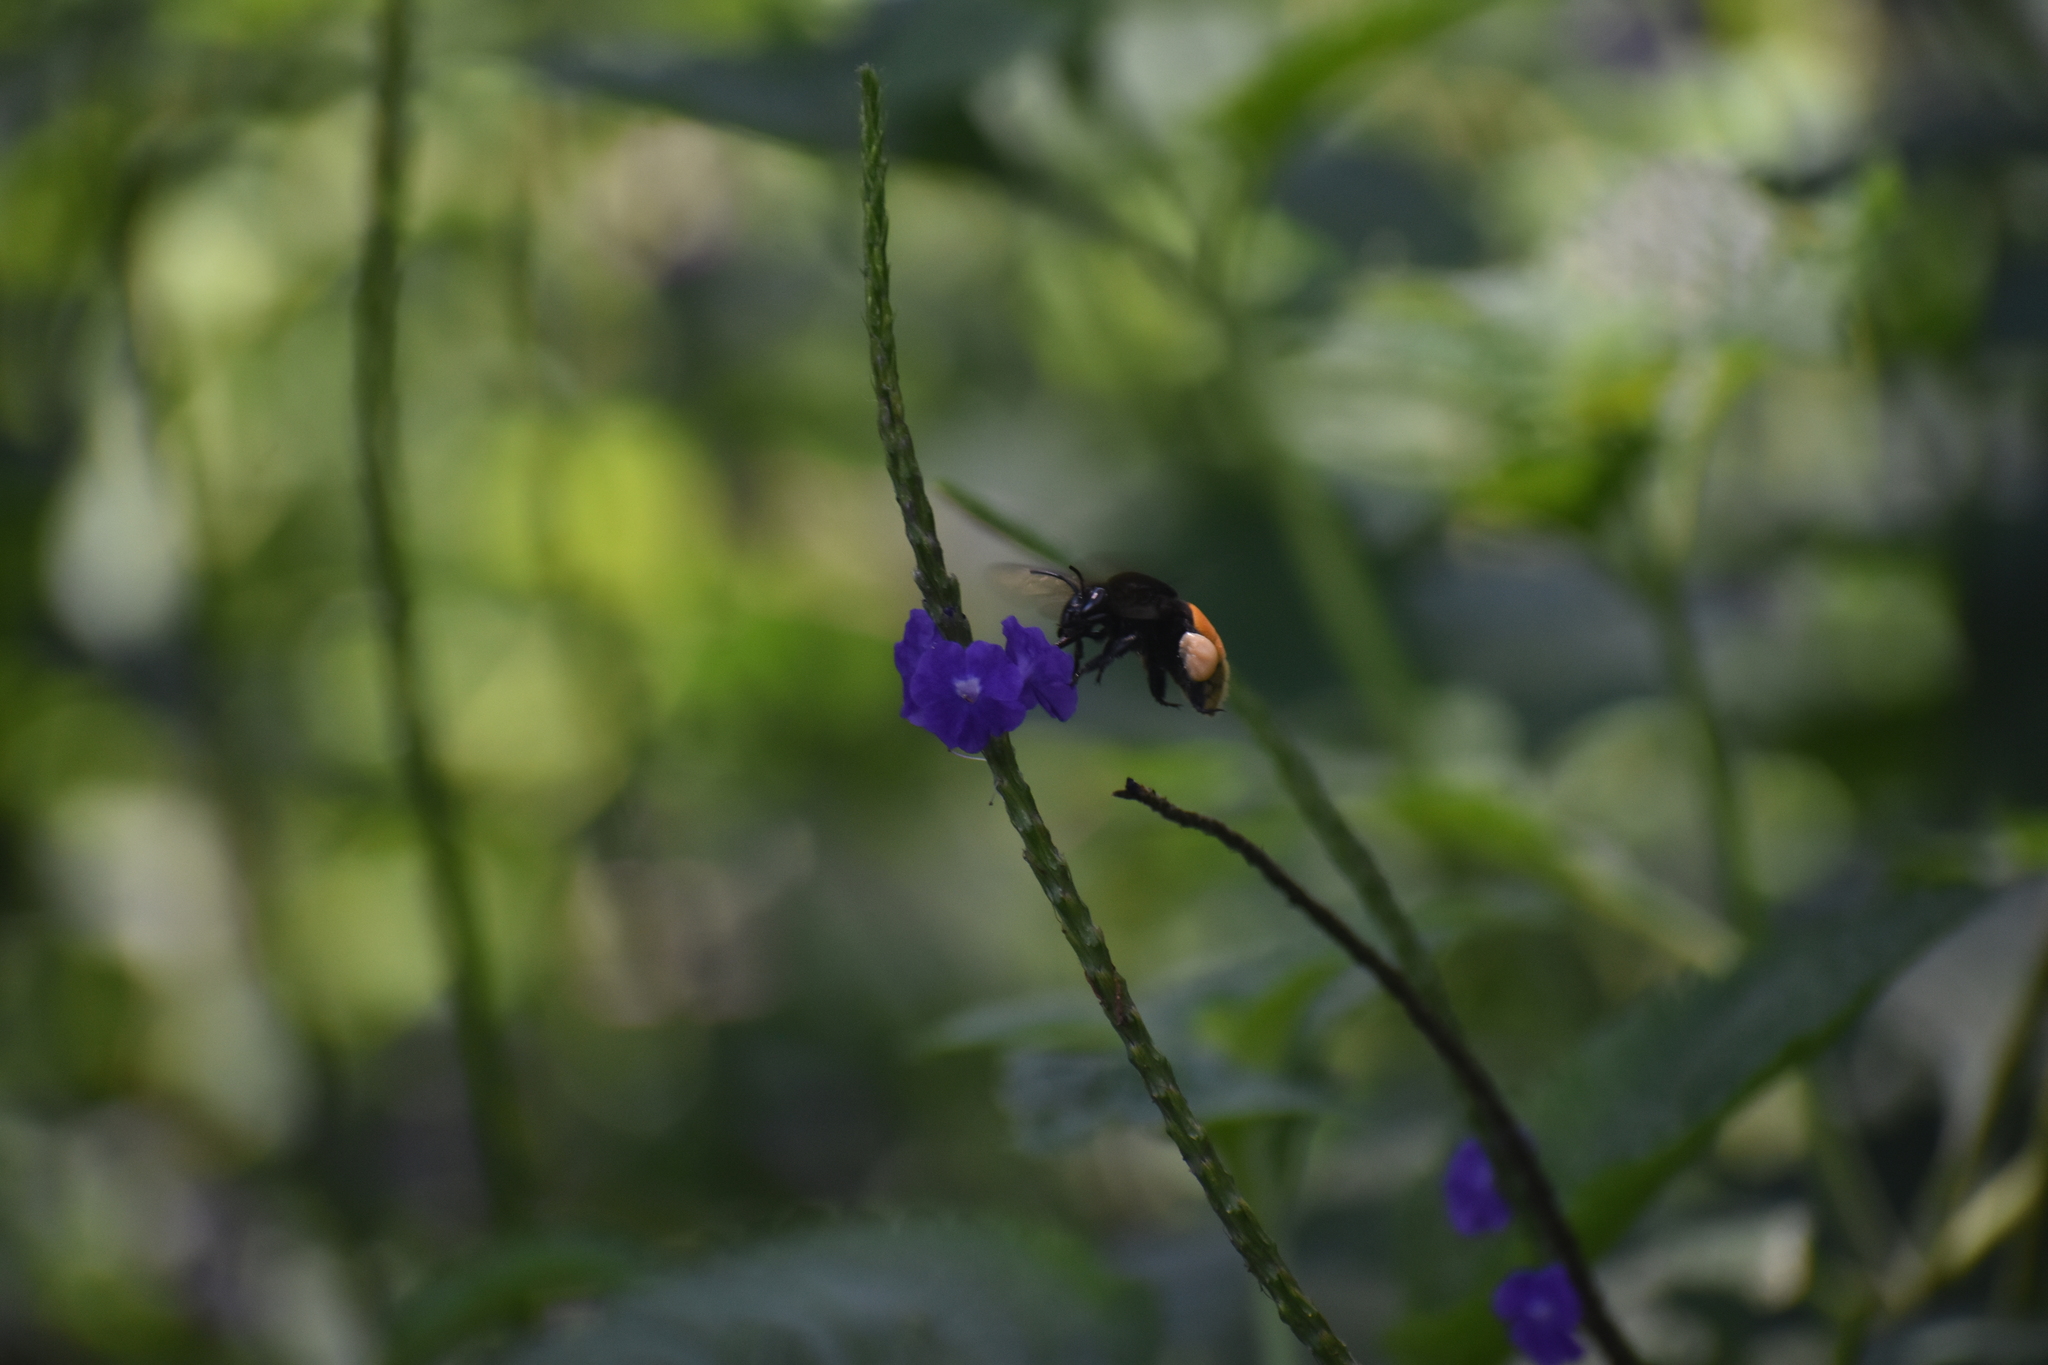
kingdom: Animalia
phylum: Arthropoda
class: Insecta
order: Hymenoptera
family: Apidae
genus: Eulaema
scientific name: Eulaema polychroma
